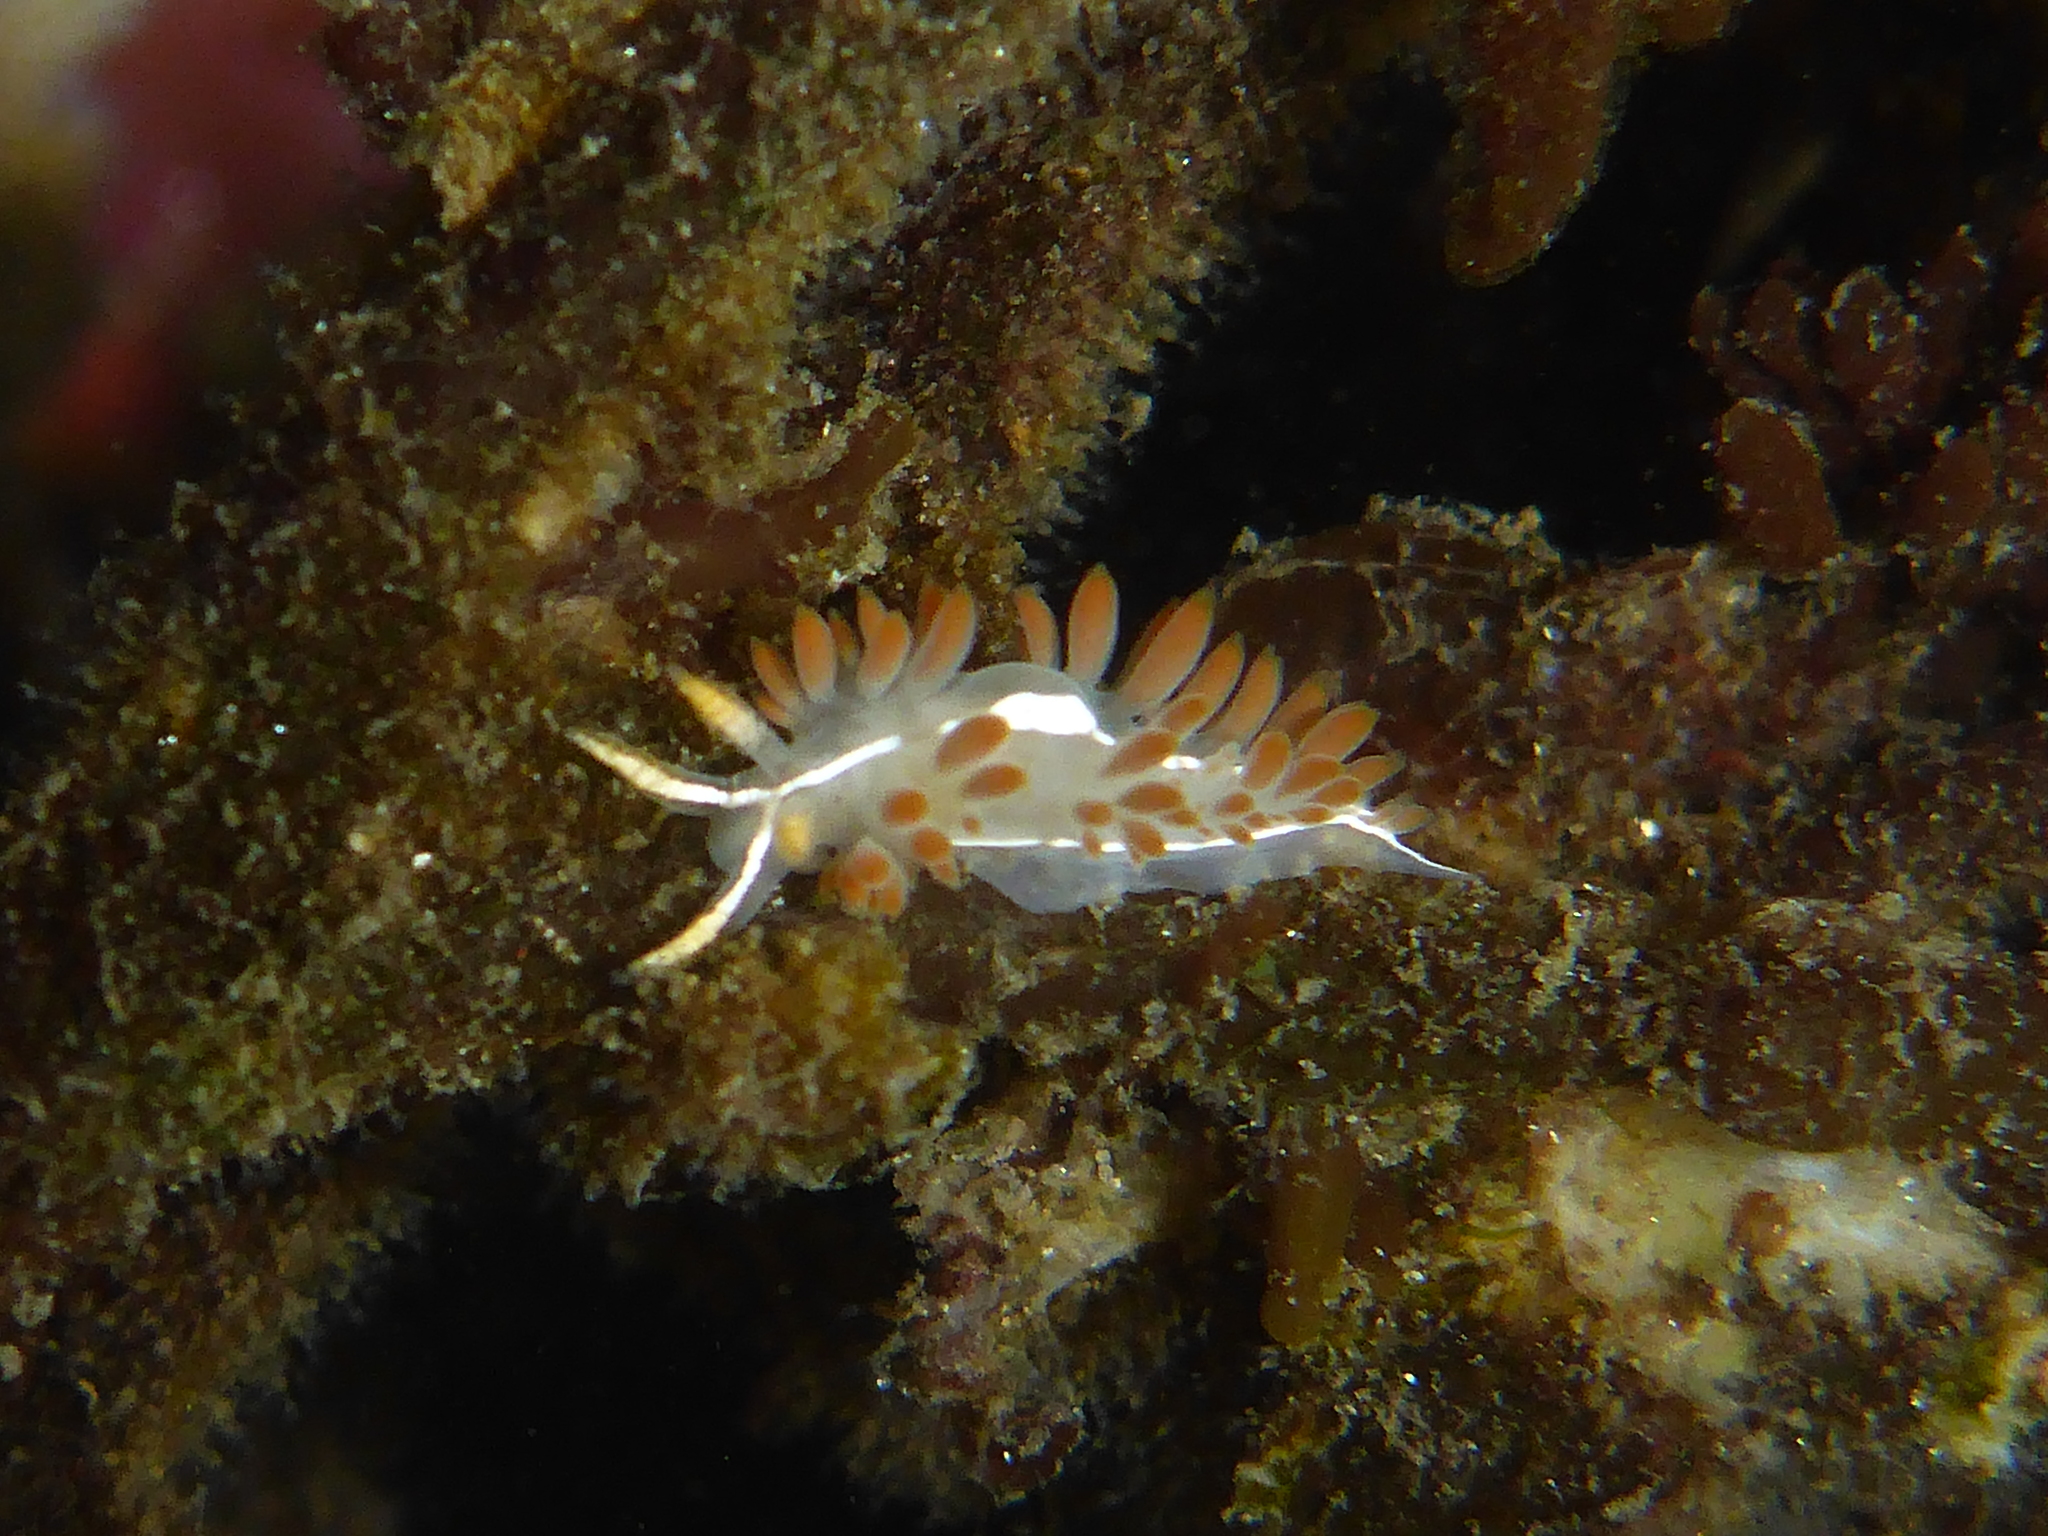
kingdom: Animalia
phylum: Mollusca
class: Gastropoda
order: Nudibranchia
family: Coryphellidae
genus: Coryphella
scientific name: Coryphella trilineata
